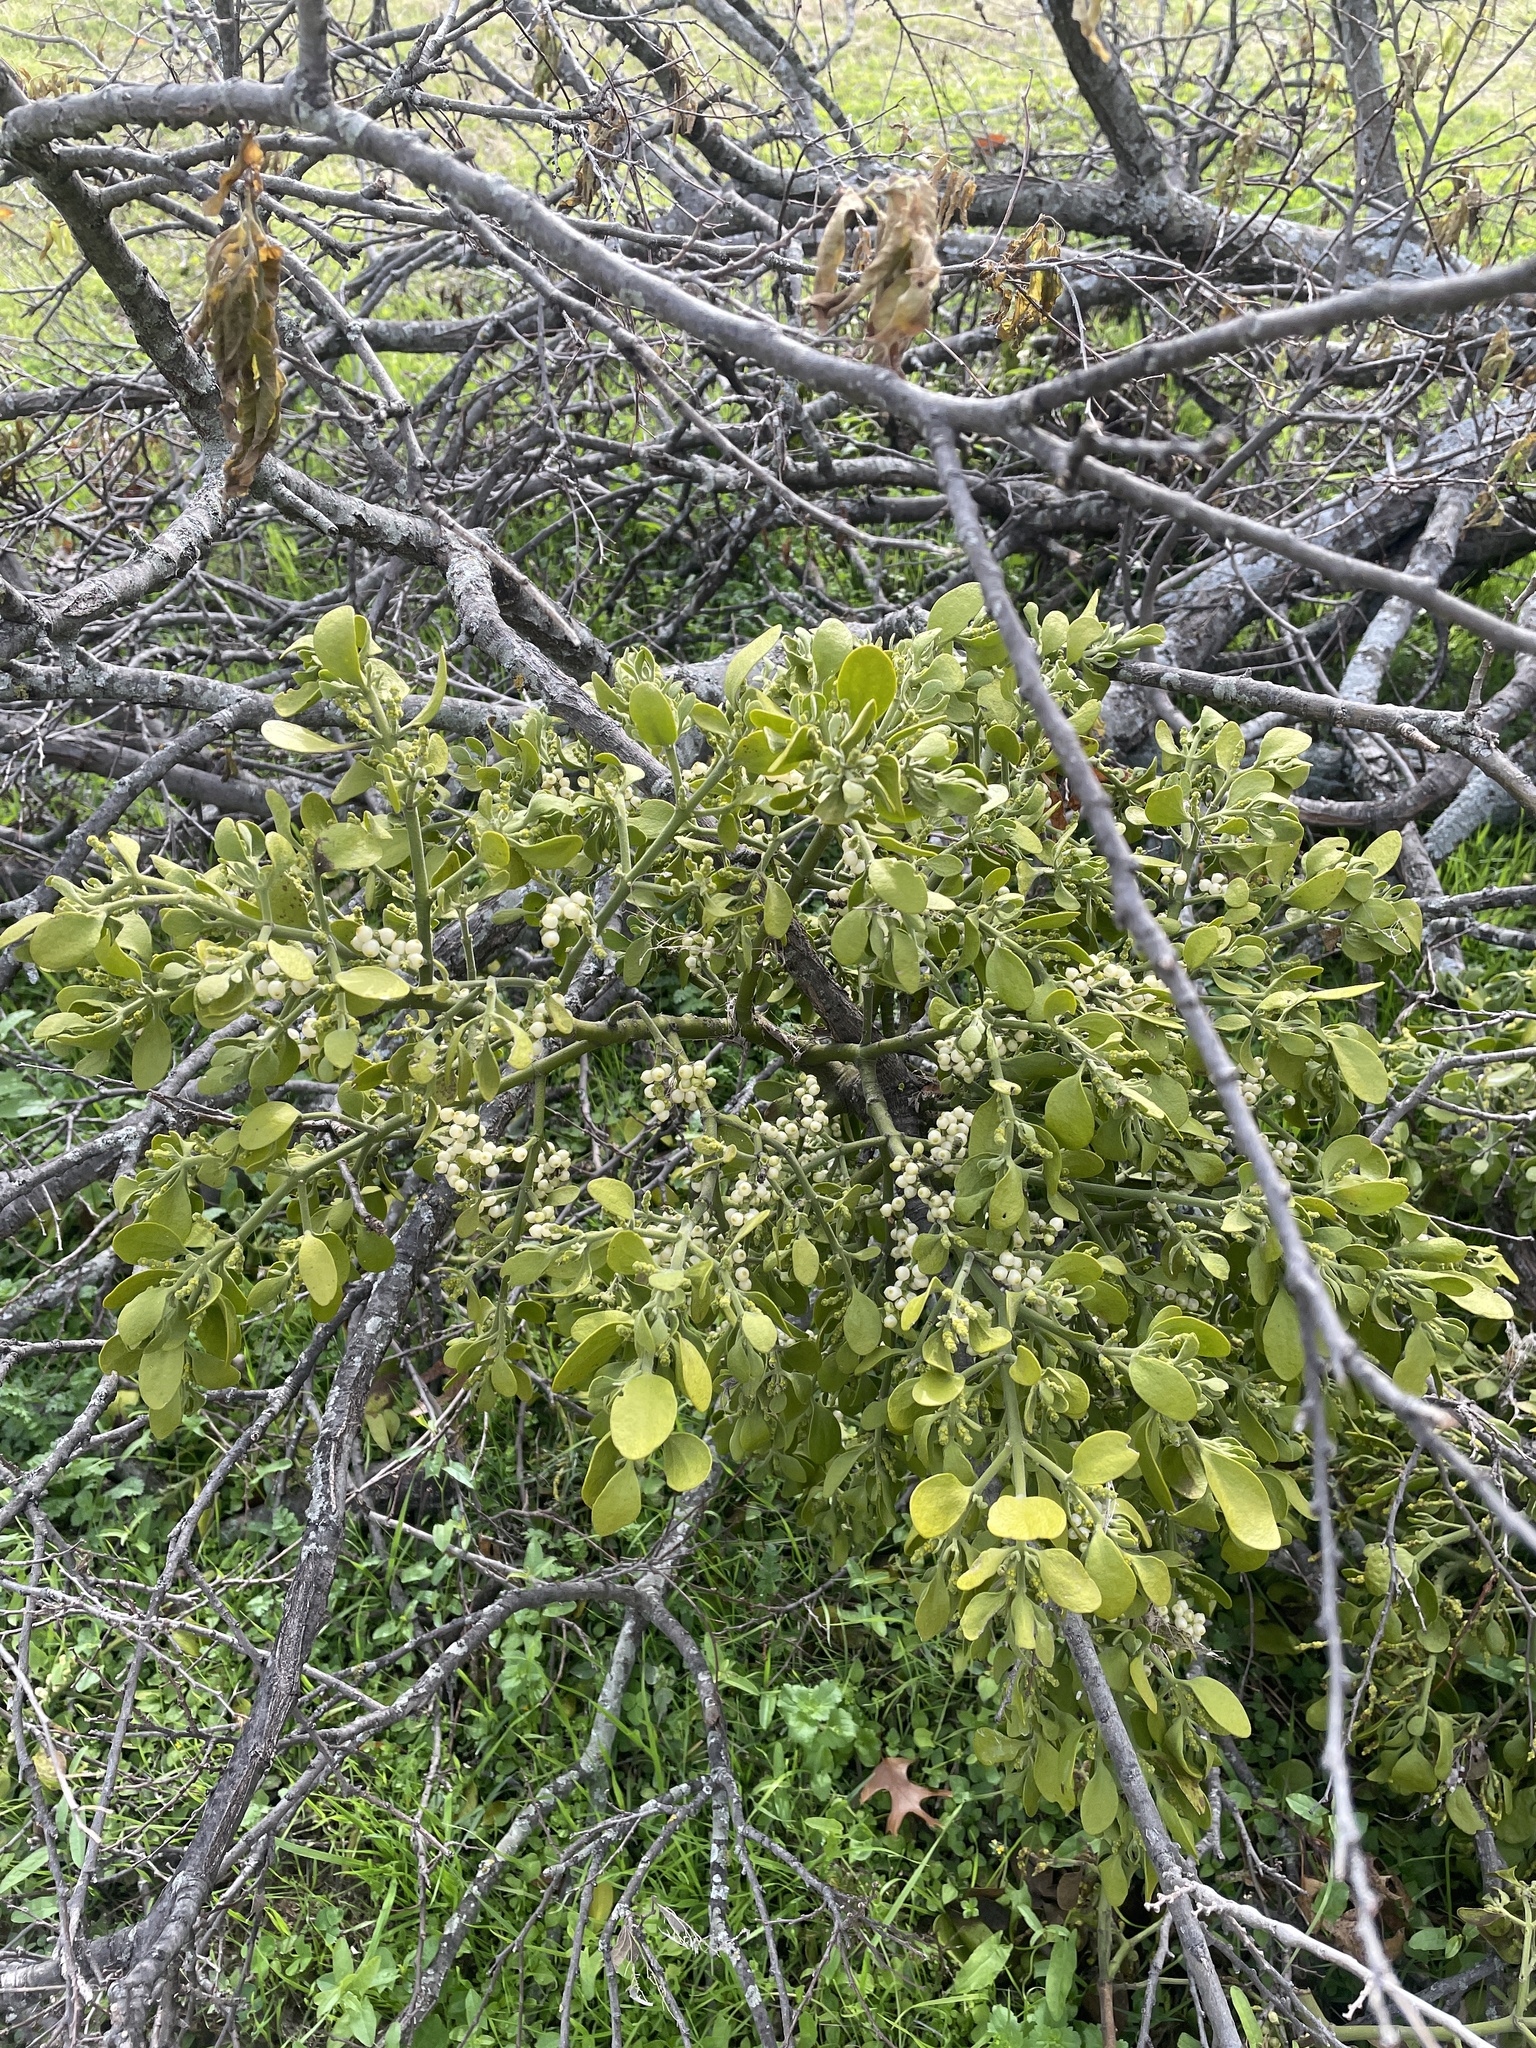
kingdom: Plantae
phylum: Tracheophyta
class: Magnoliopsida
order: Santalales
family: Viscaceae
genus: Phoradendron
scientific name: Phoradendron leucarpum
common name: Pacific mistletoe
